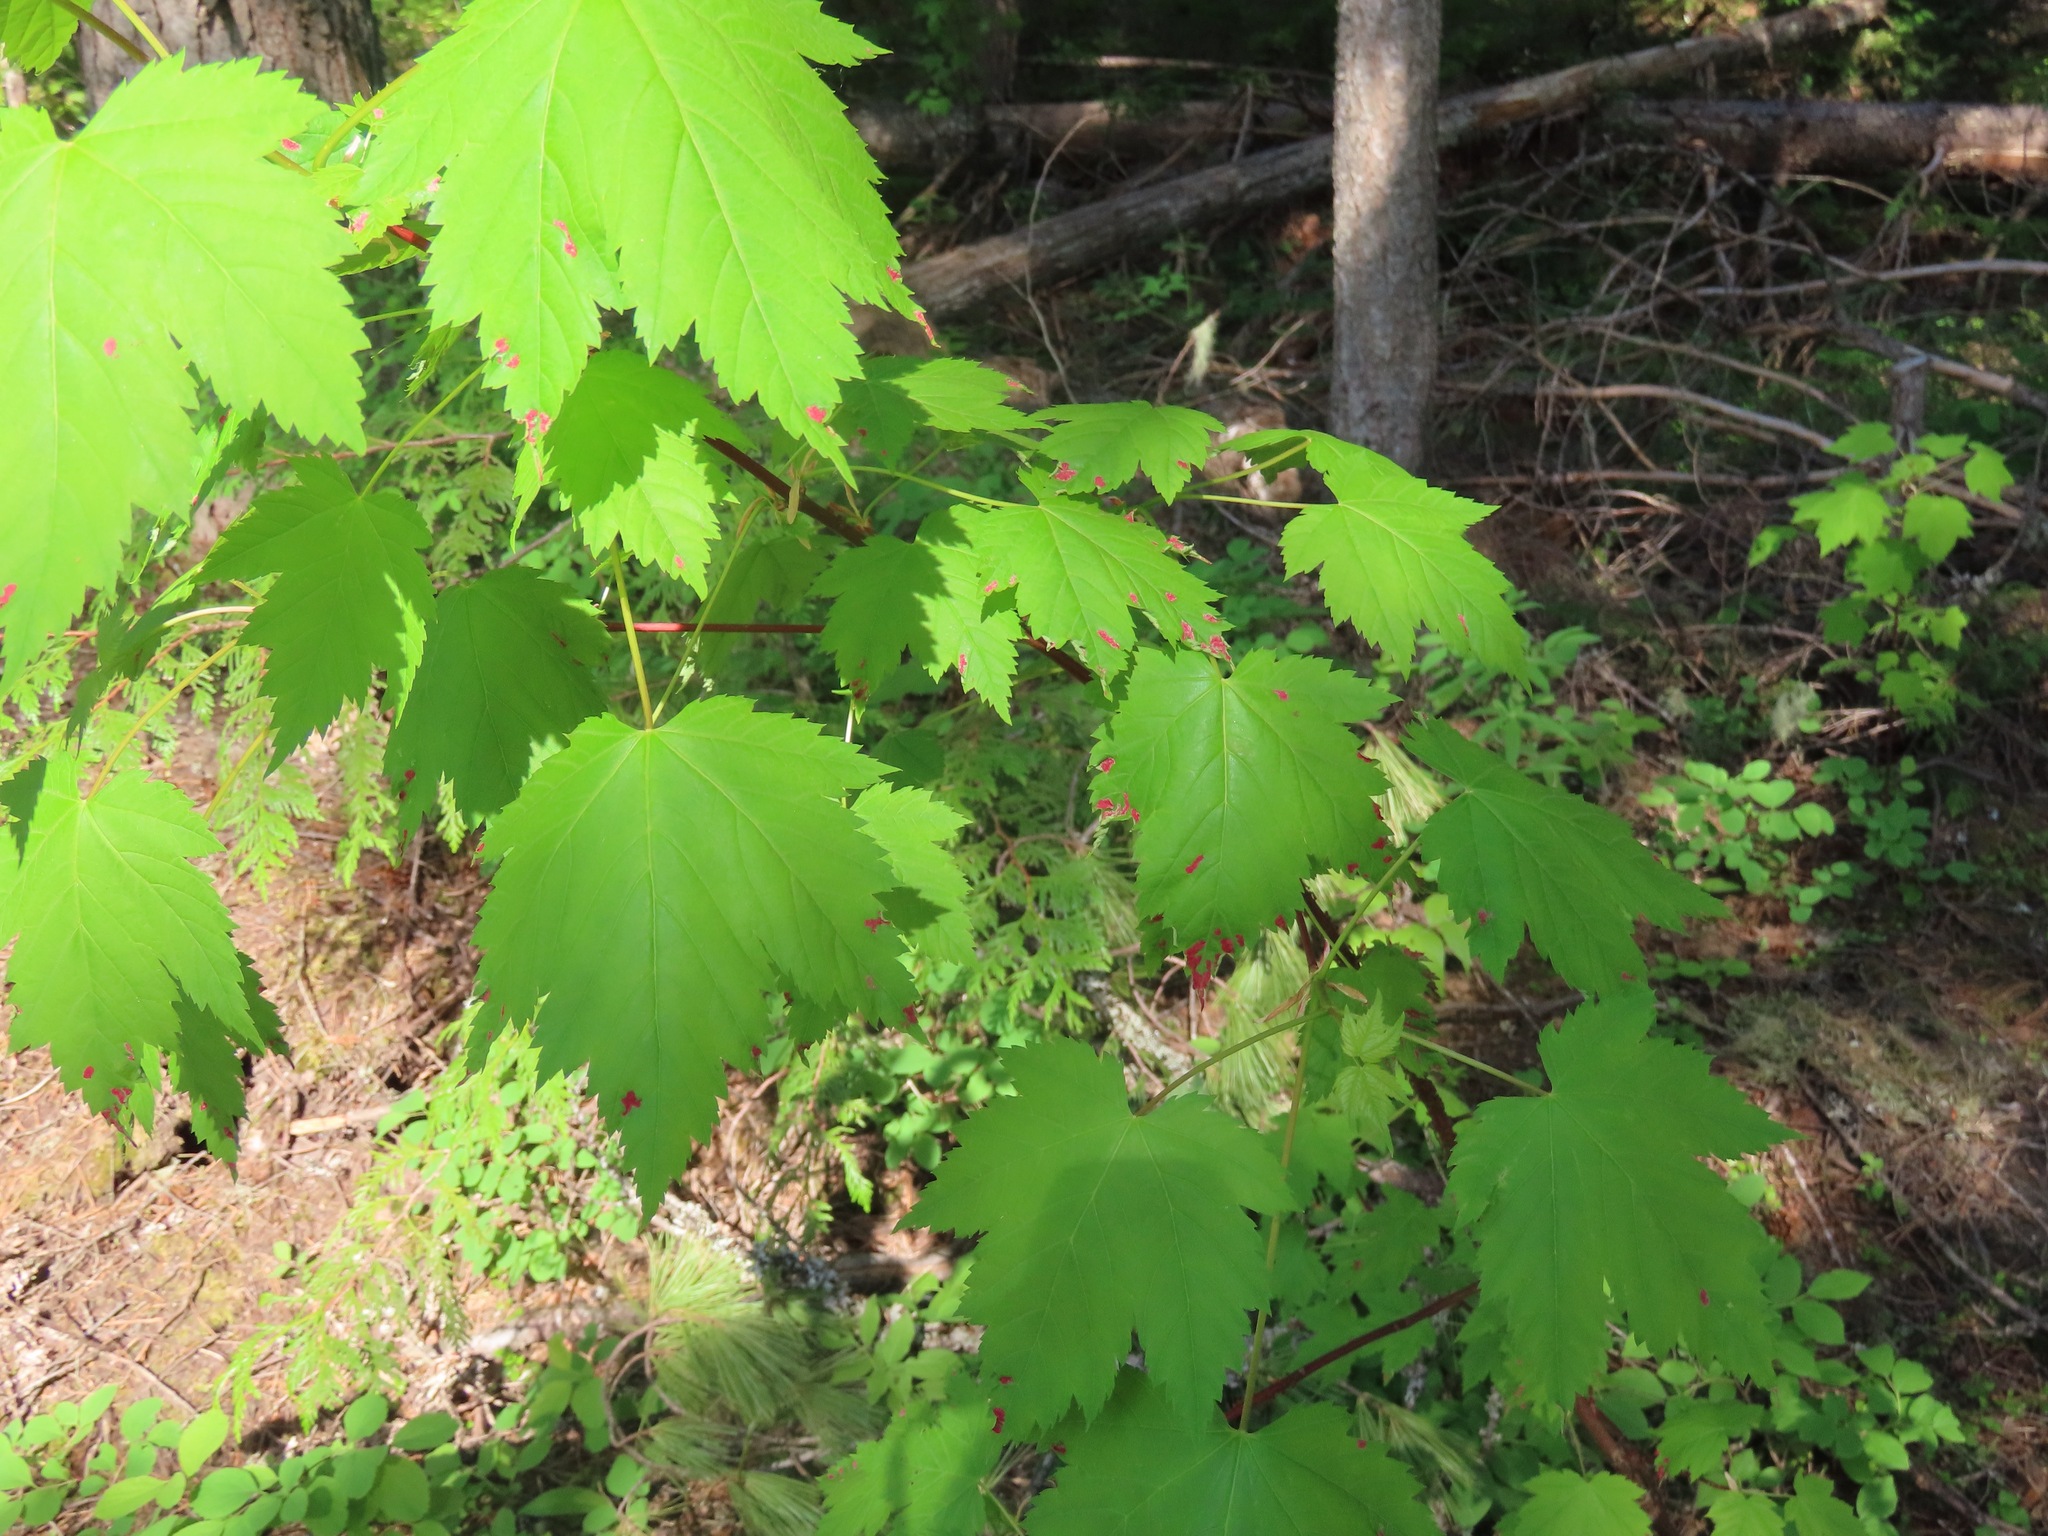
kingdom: Plantae
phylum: Tracheophyta
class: Magnoliopsida
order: Sapindales
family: Sapindaceae
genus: Acer
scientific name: Acer glabrum
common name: Rocky mountain maple
